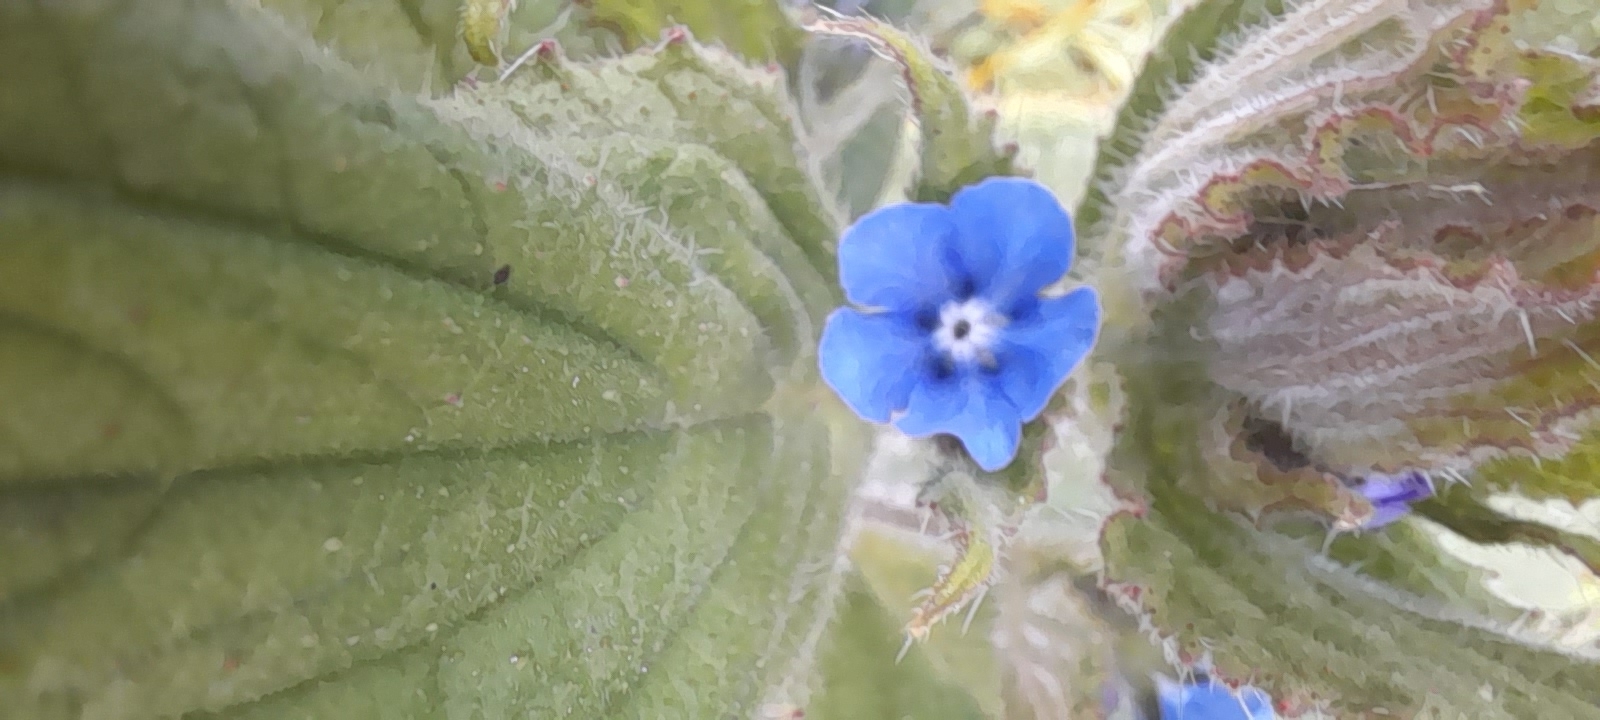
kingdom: Plantae
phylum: Tracheophyta
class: Magnoliopsida
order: Boraginales
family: Boraginaceae
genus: Pentaglottis
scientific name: Pentaglottis sempervirens
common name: Green alkanet
